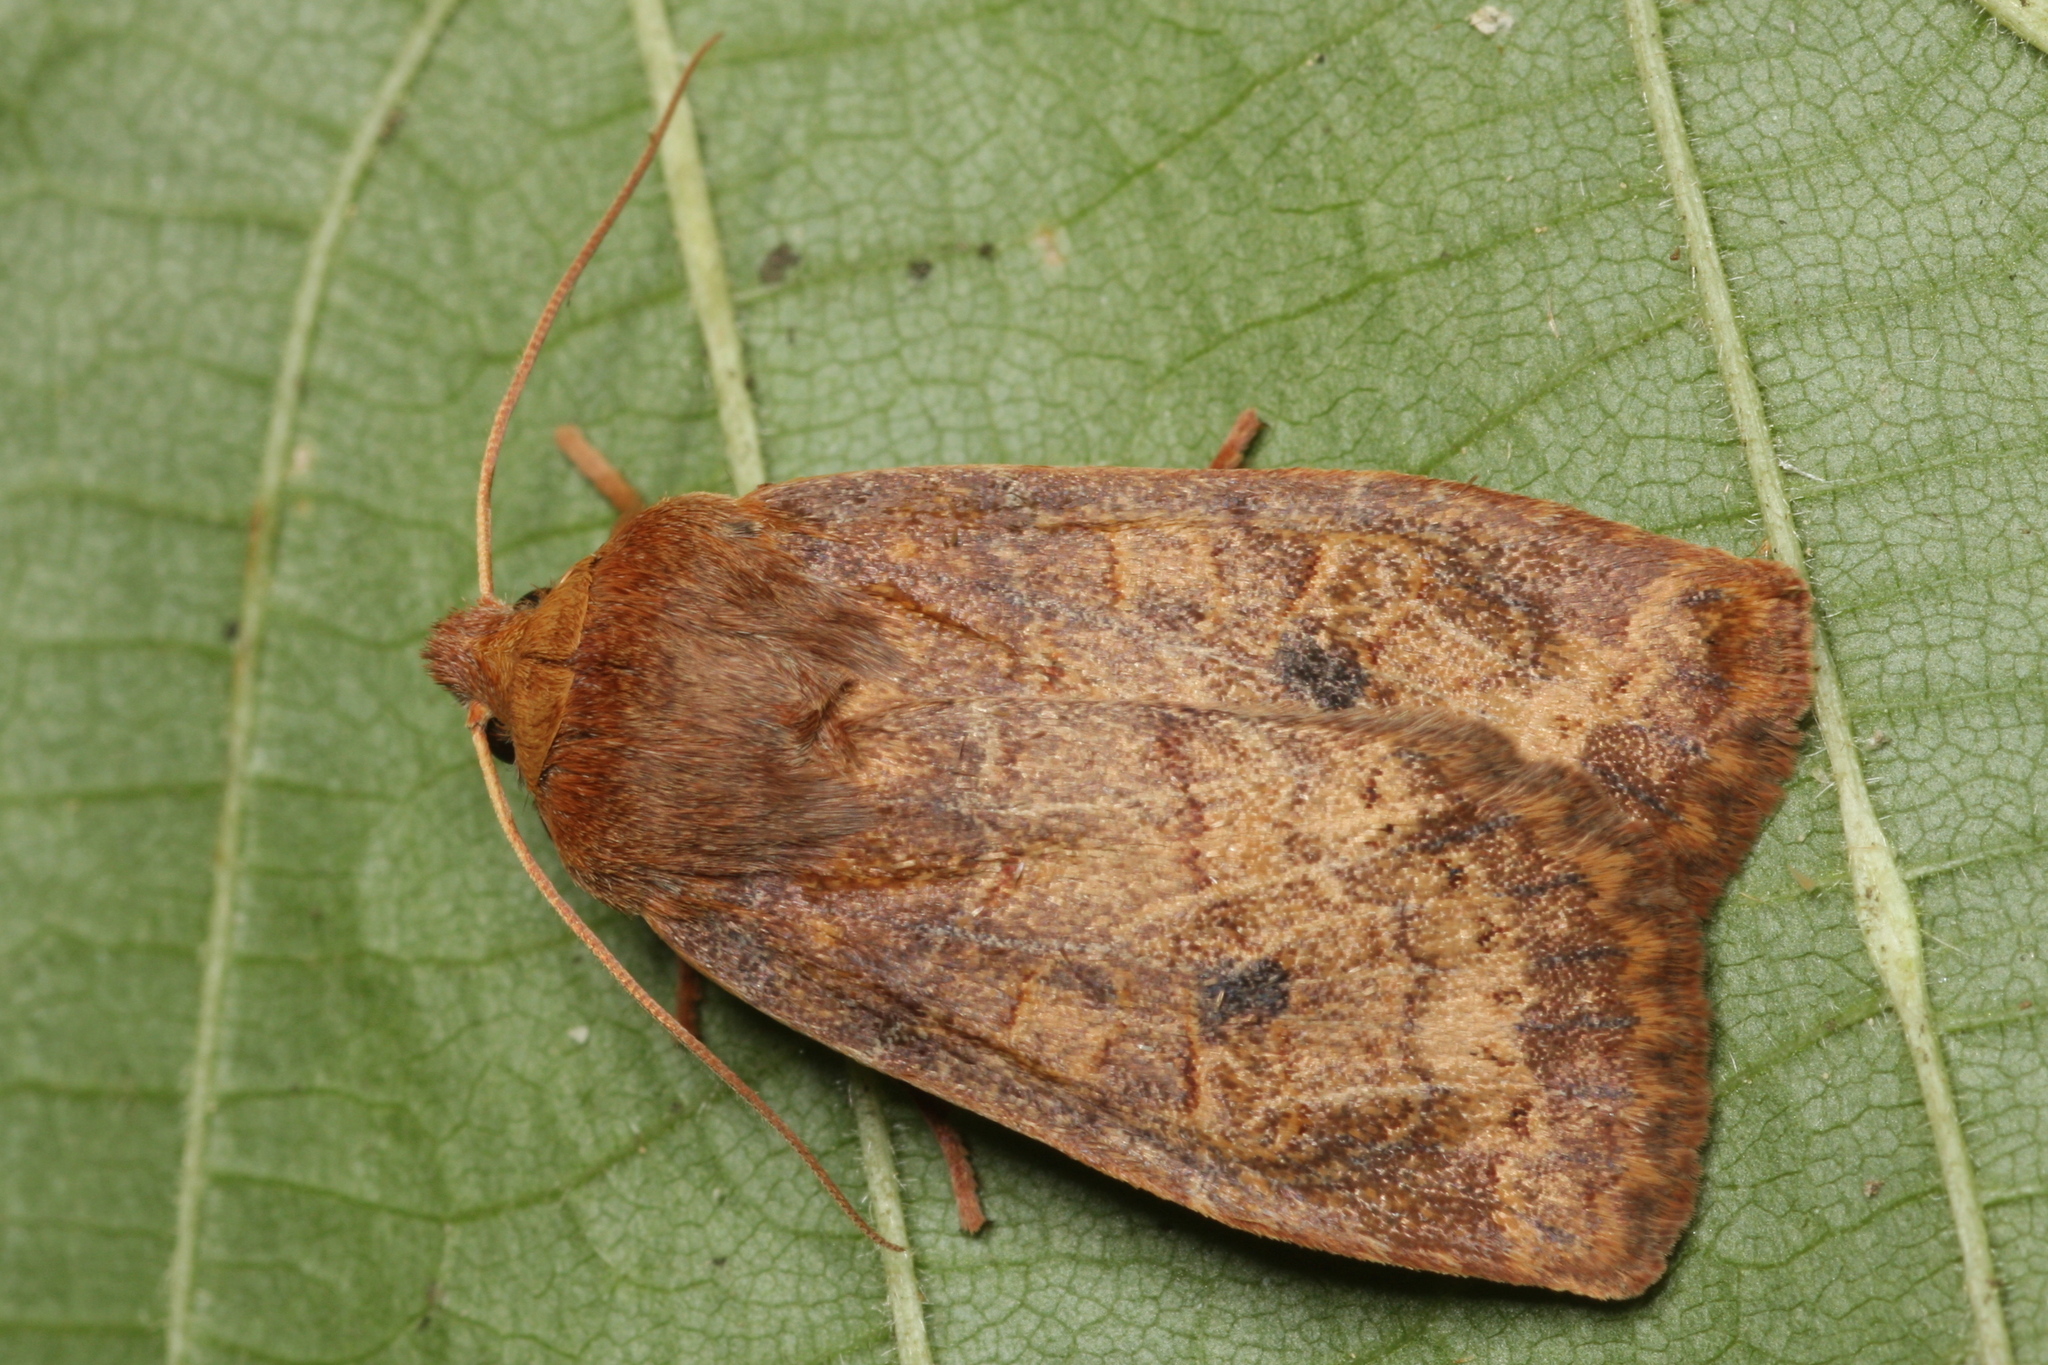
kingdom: Animalia
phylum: Arthropoda
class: Insecta
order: Lepidoptera
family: Noctuidae
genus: Conistra
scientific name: Conistra vaccinii
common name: Chestnut
